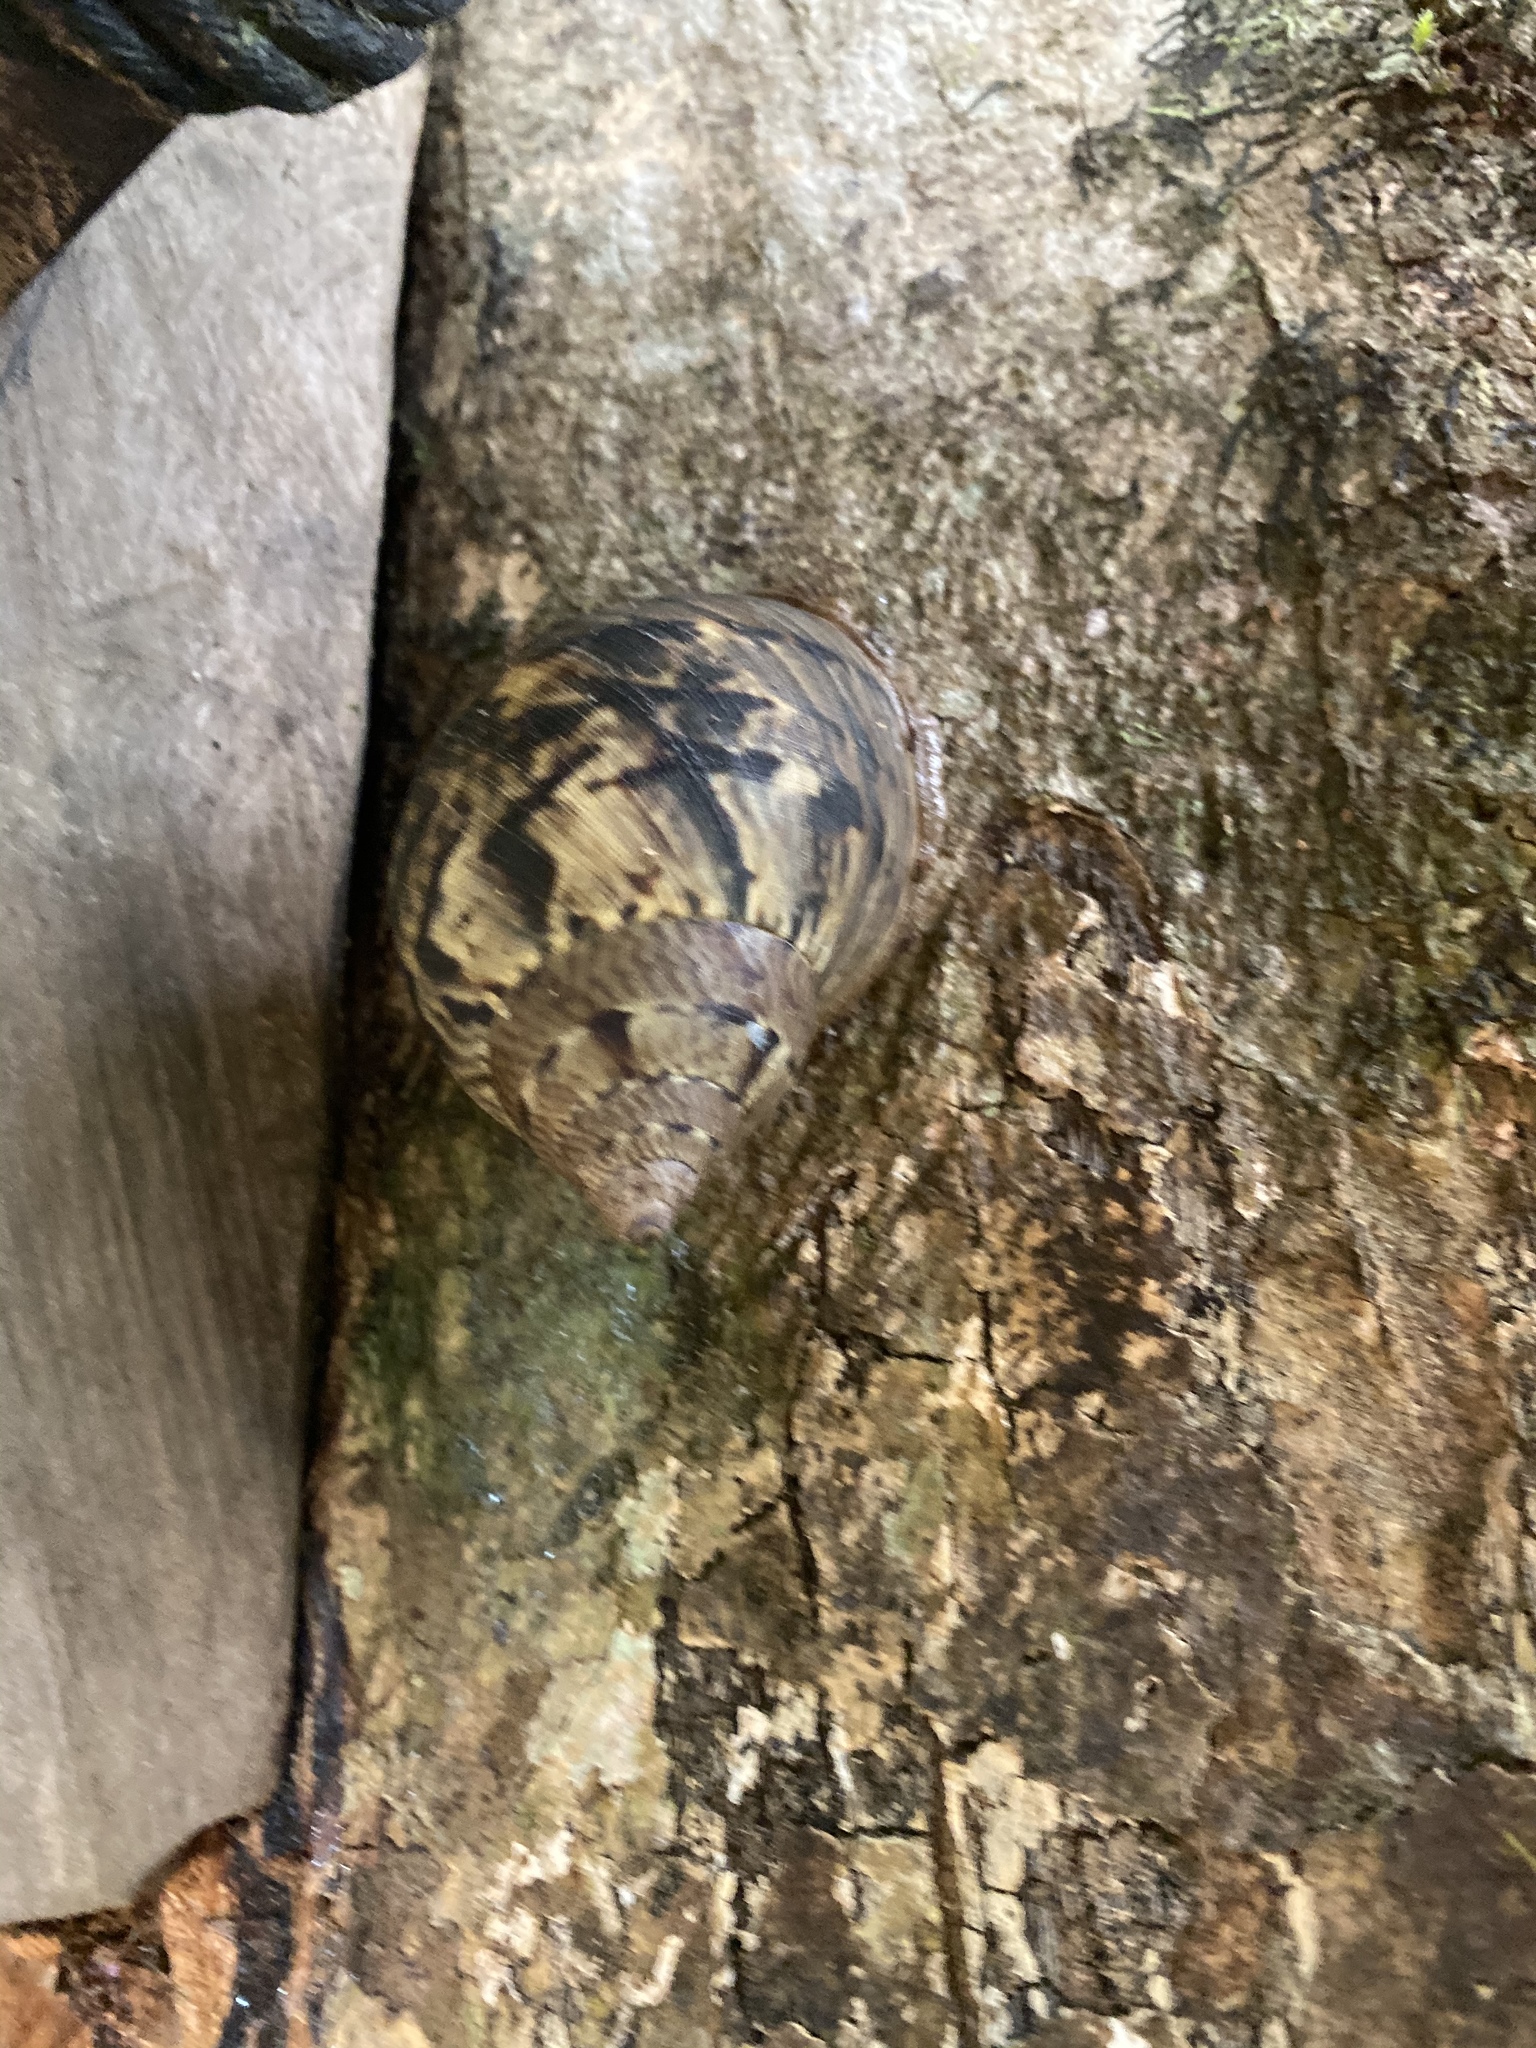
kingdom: Animalia
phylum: Mollusca
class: Gastropoda
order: Stylommatophora
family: Orthalicidae
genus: Sultana
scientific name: Sultana meobambensis
